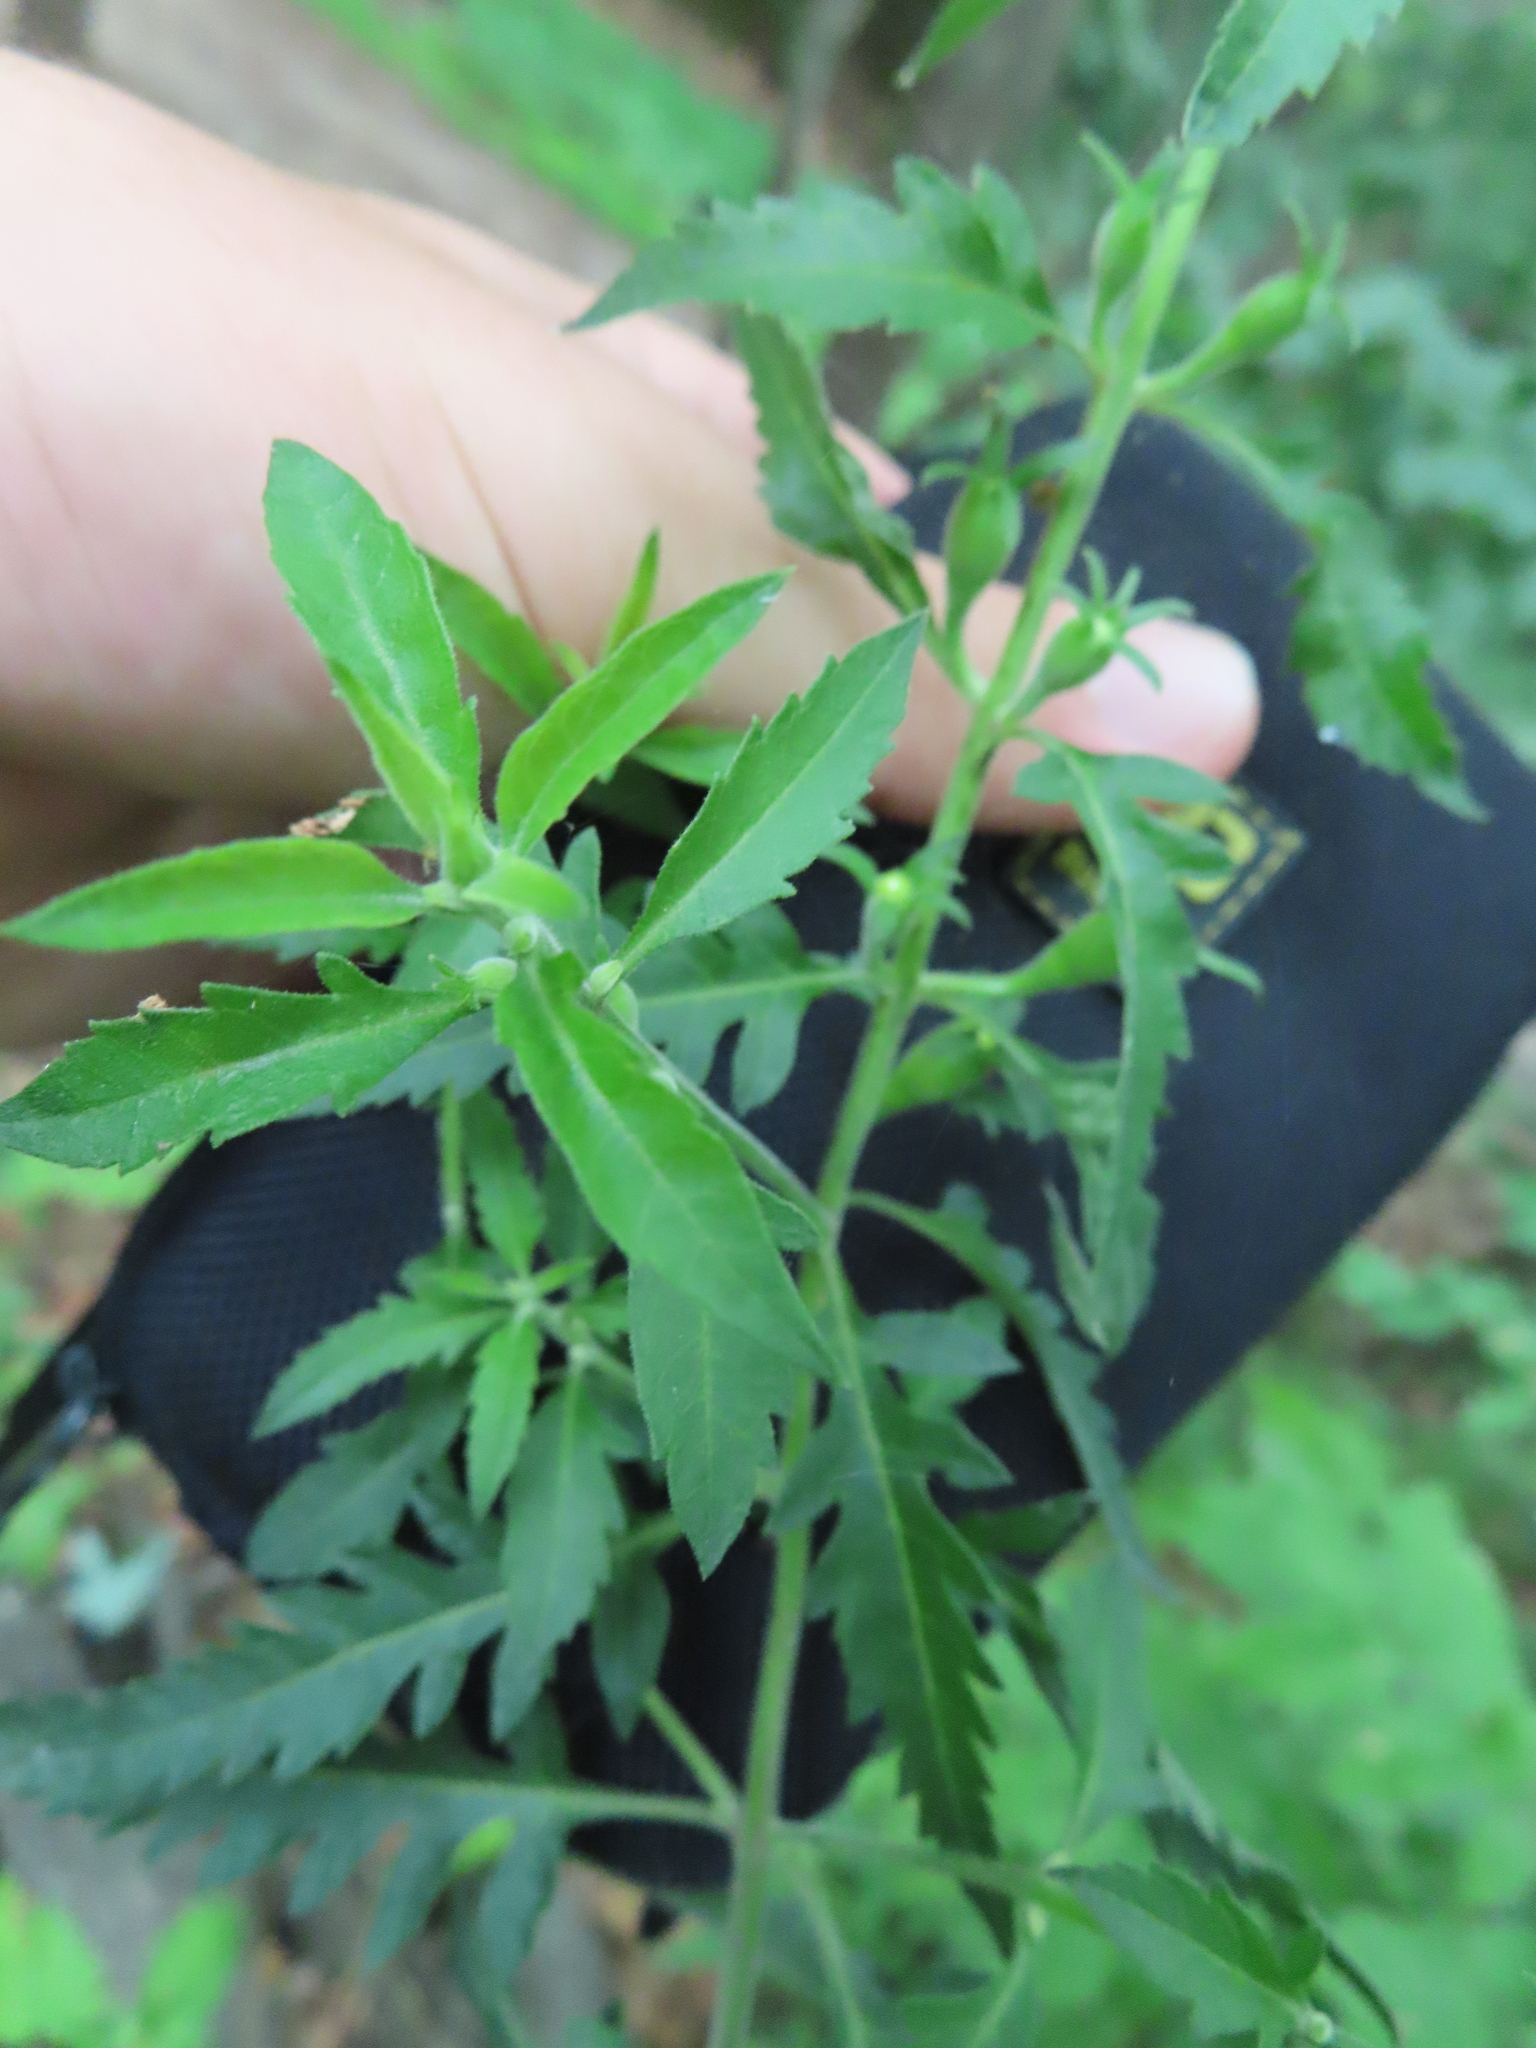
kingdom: Plantae
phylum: Tracheophyta
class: Magnoliopsida
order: Lamiales
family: Orobanchaceae
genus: Aureolaria
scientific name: Aureolaria grandiflora
